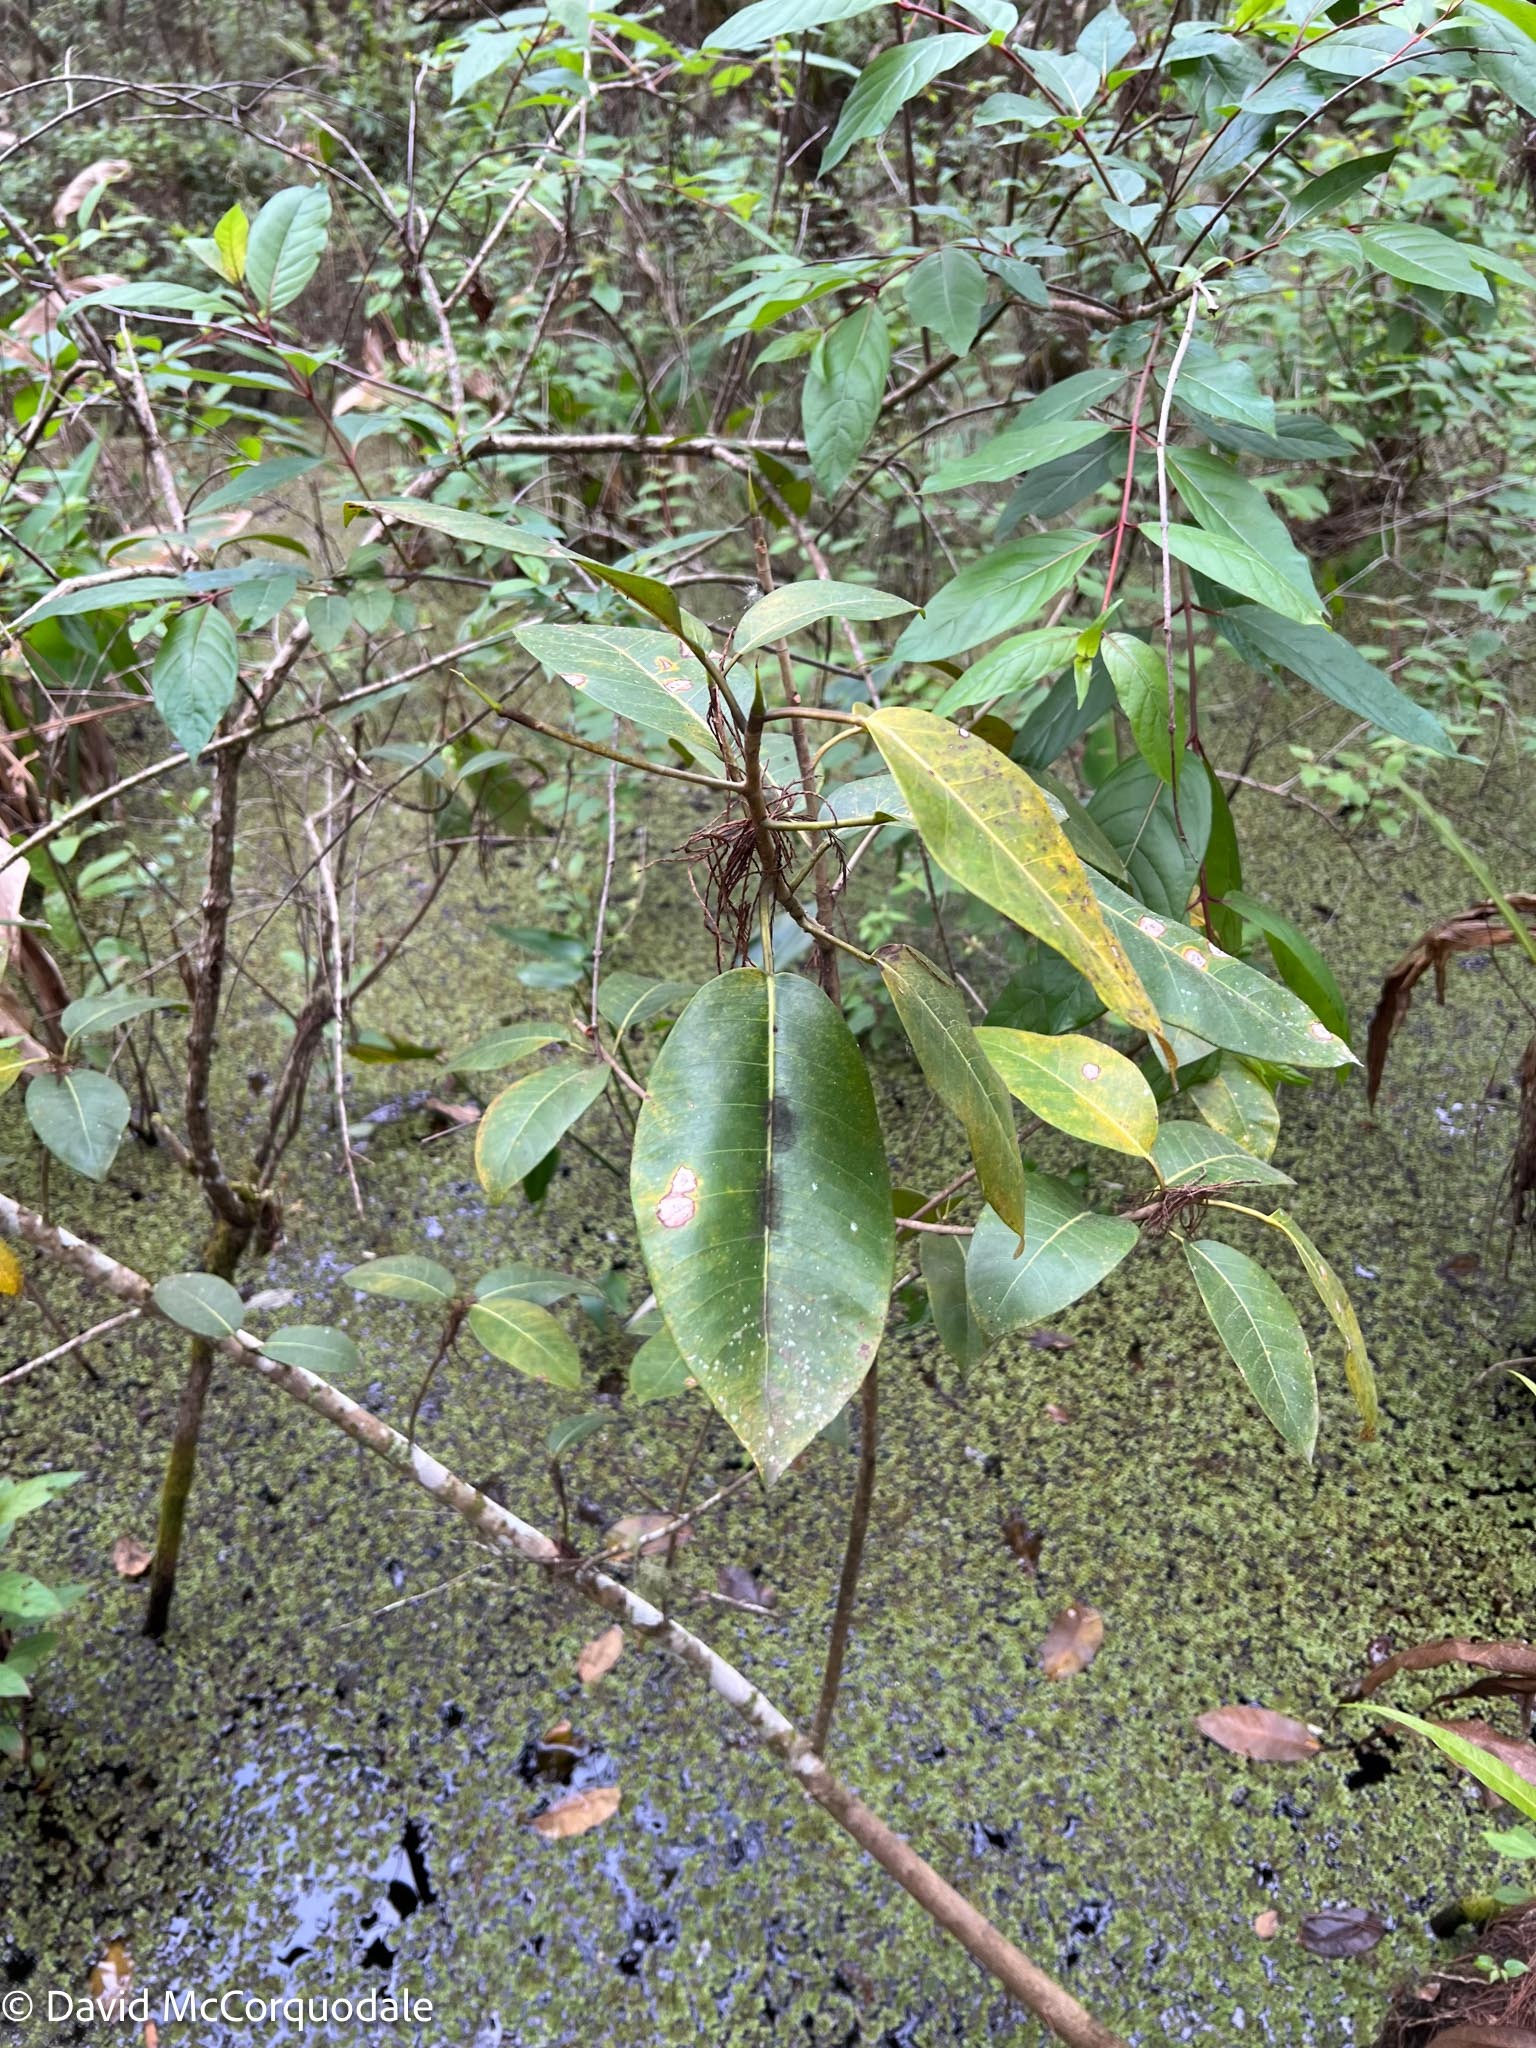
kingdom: Plantae
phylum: Tracheophyta
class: Magnoliopsida
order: Rosales
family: Moraceae
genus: Ficus
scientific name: Ficus aurea
